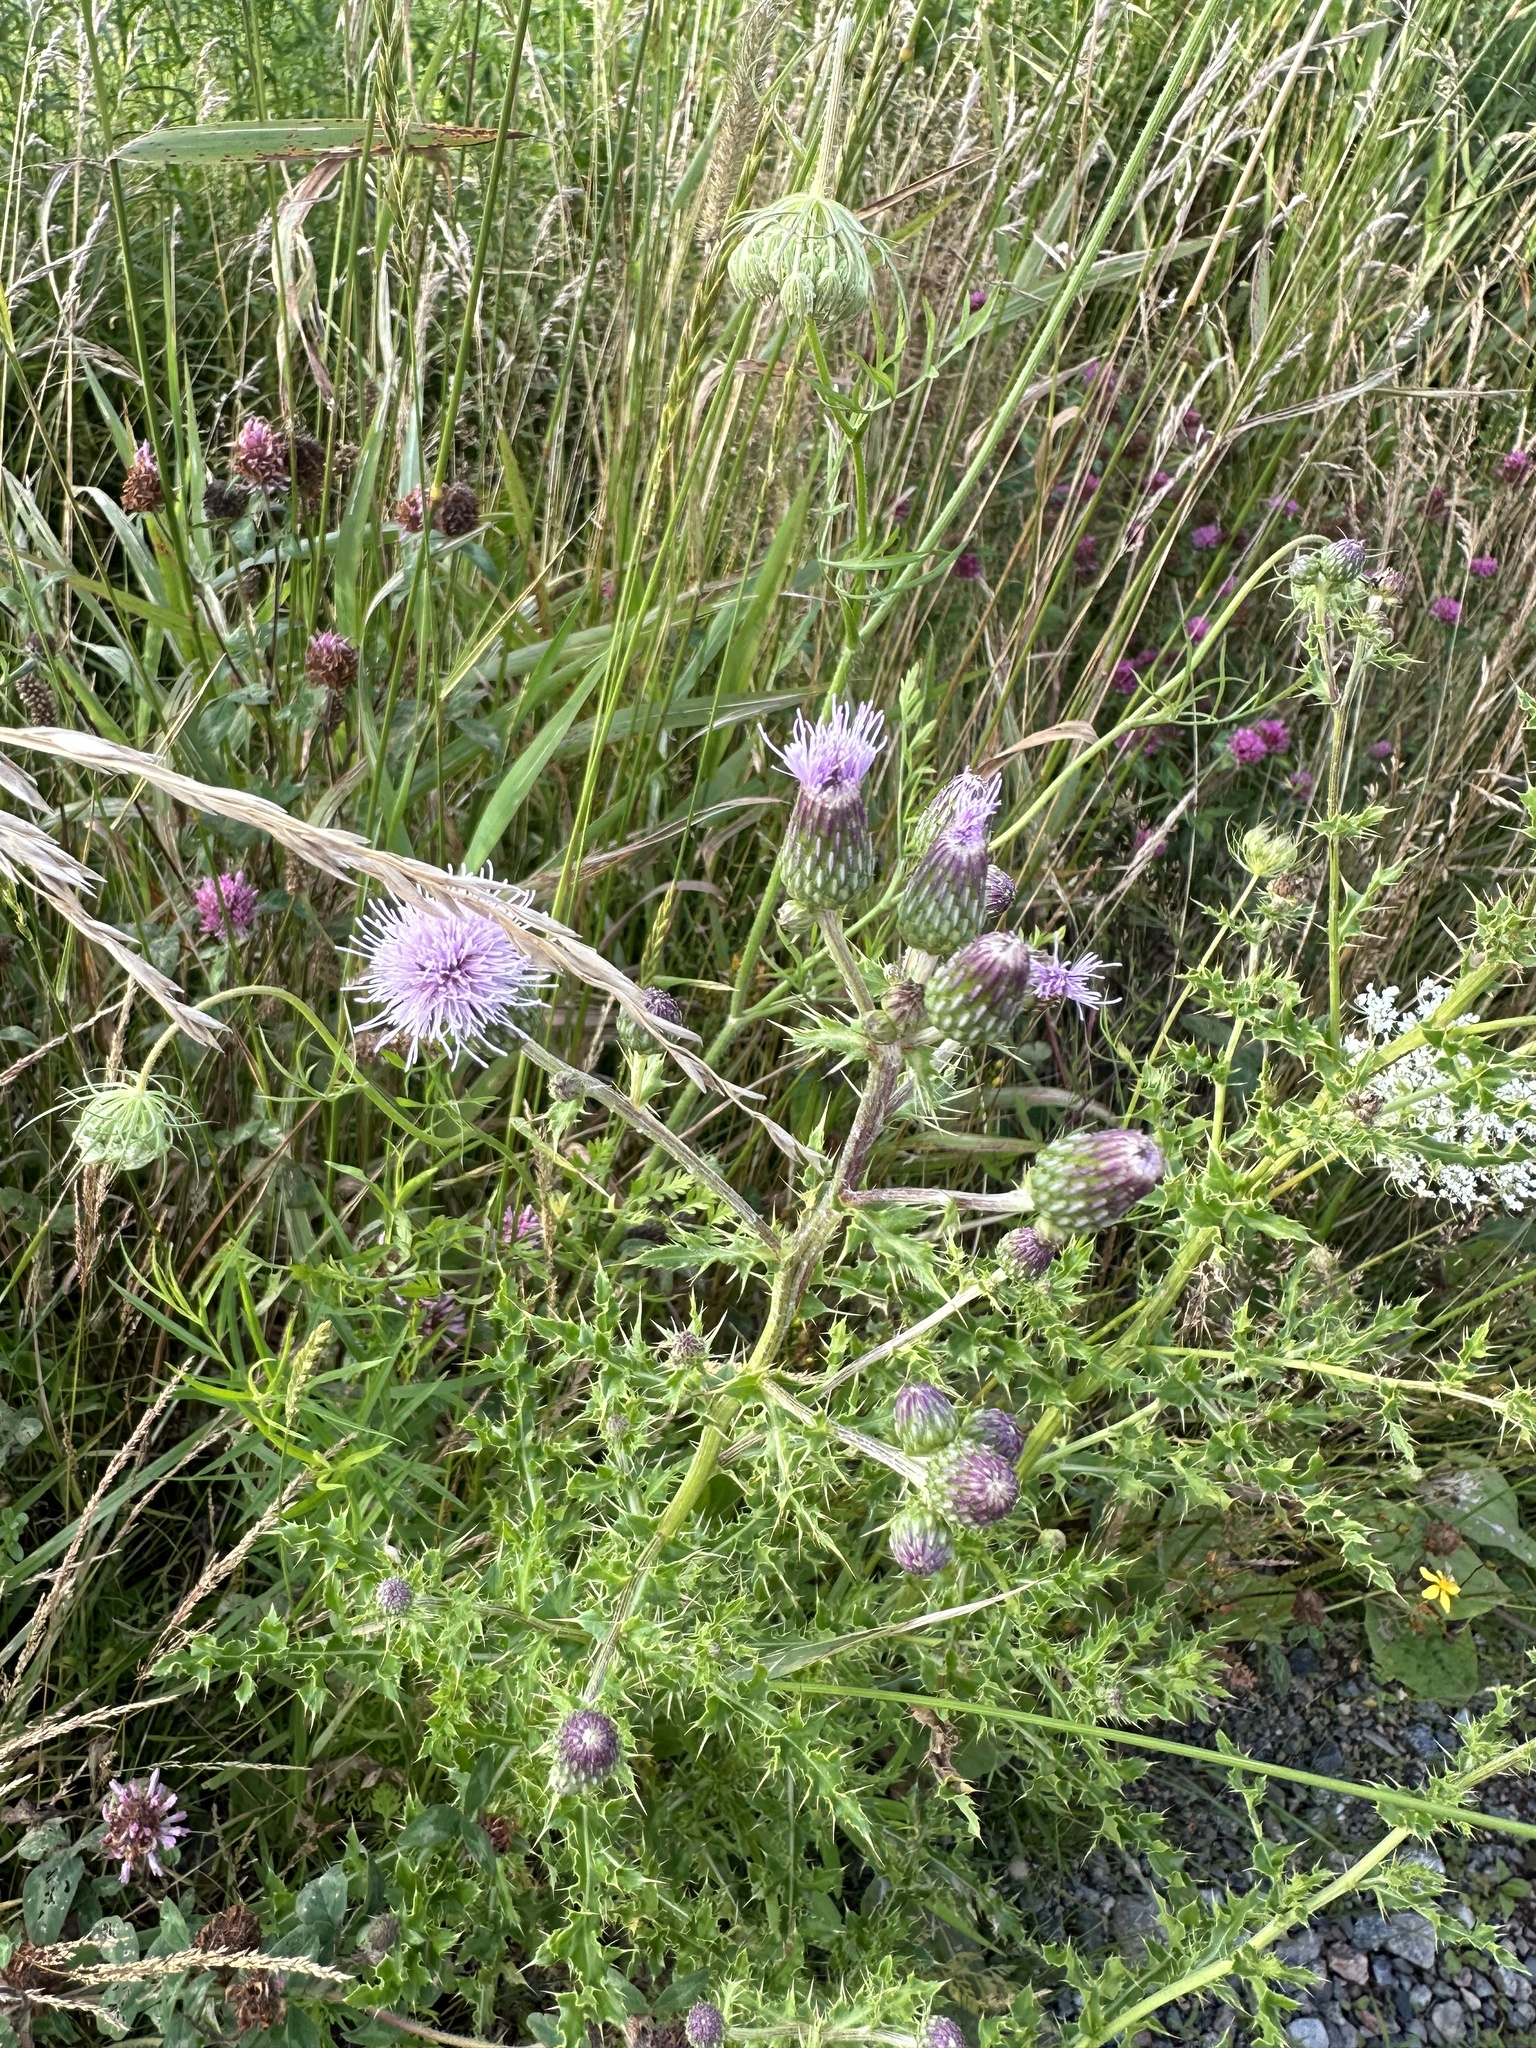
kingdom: Plantae
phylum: Tracheophyta
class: Magnoliopsida
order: Asterales
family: Asteraceae
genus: Cirsium
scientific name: Cirsium arvense
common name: Creeping thistle
